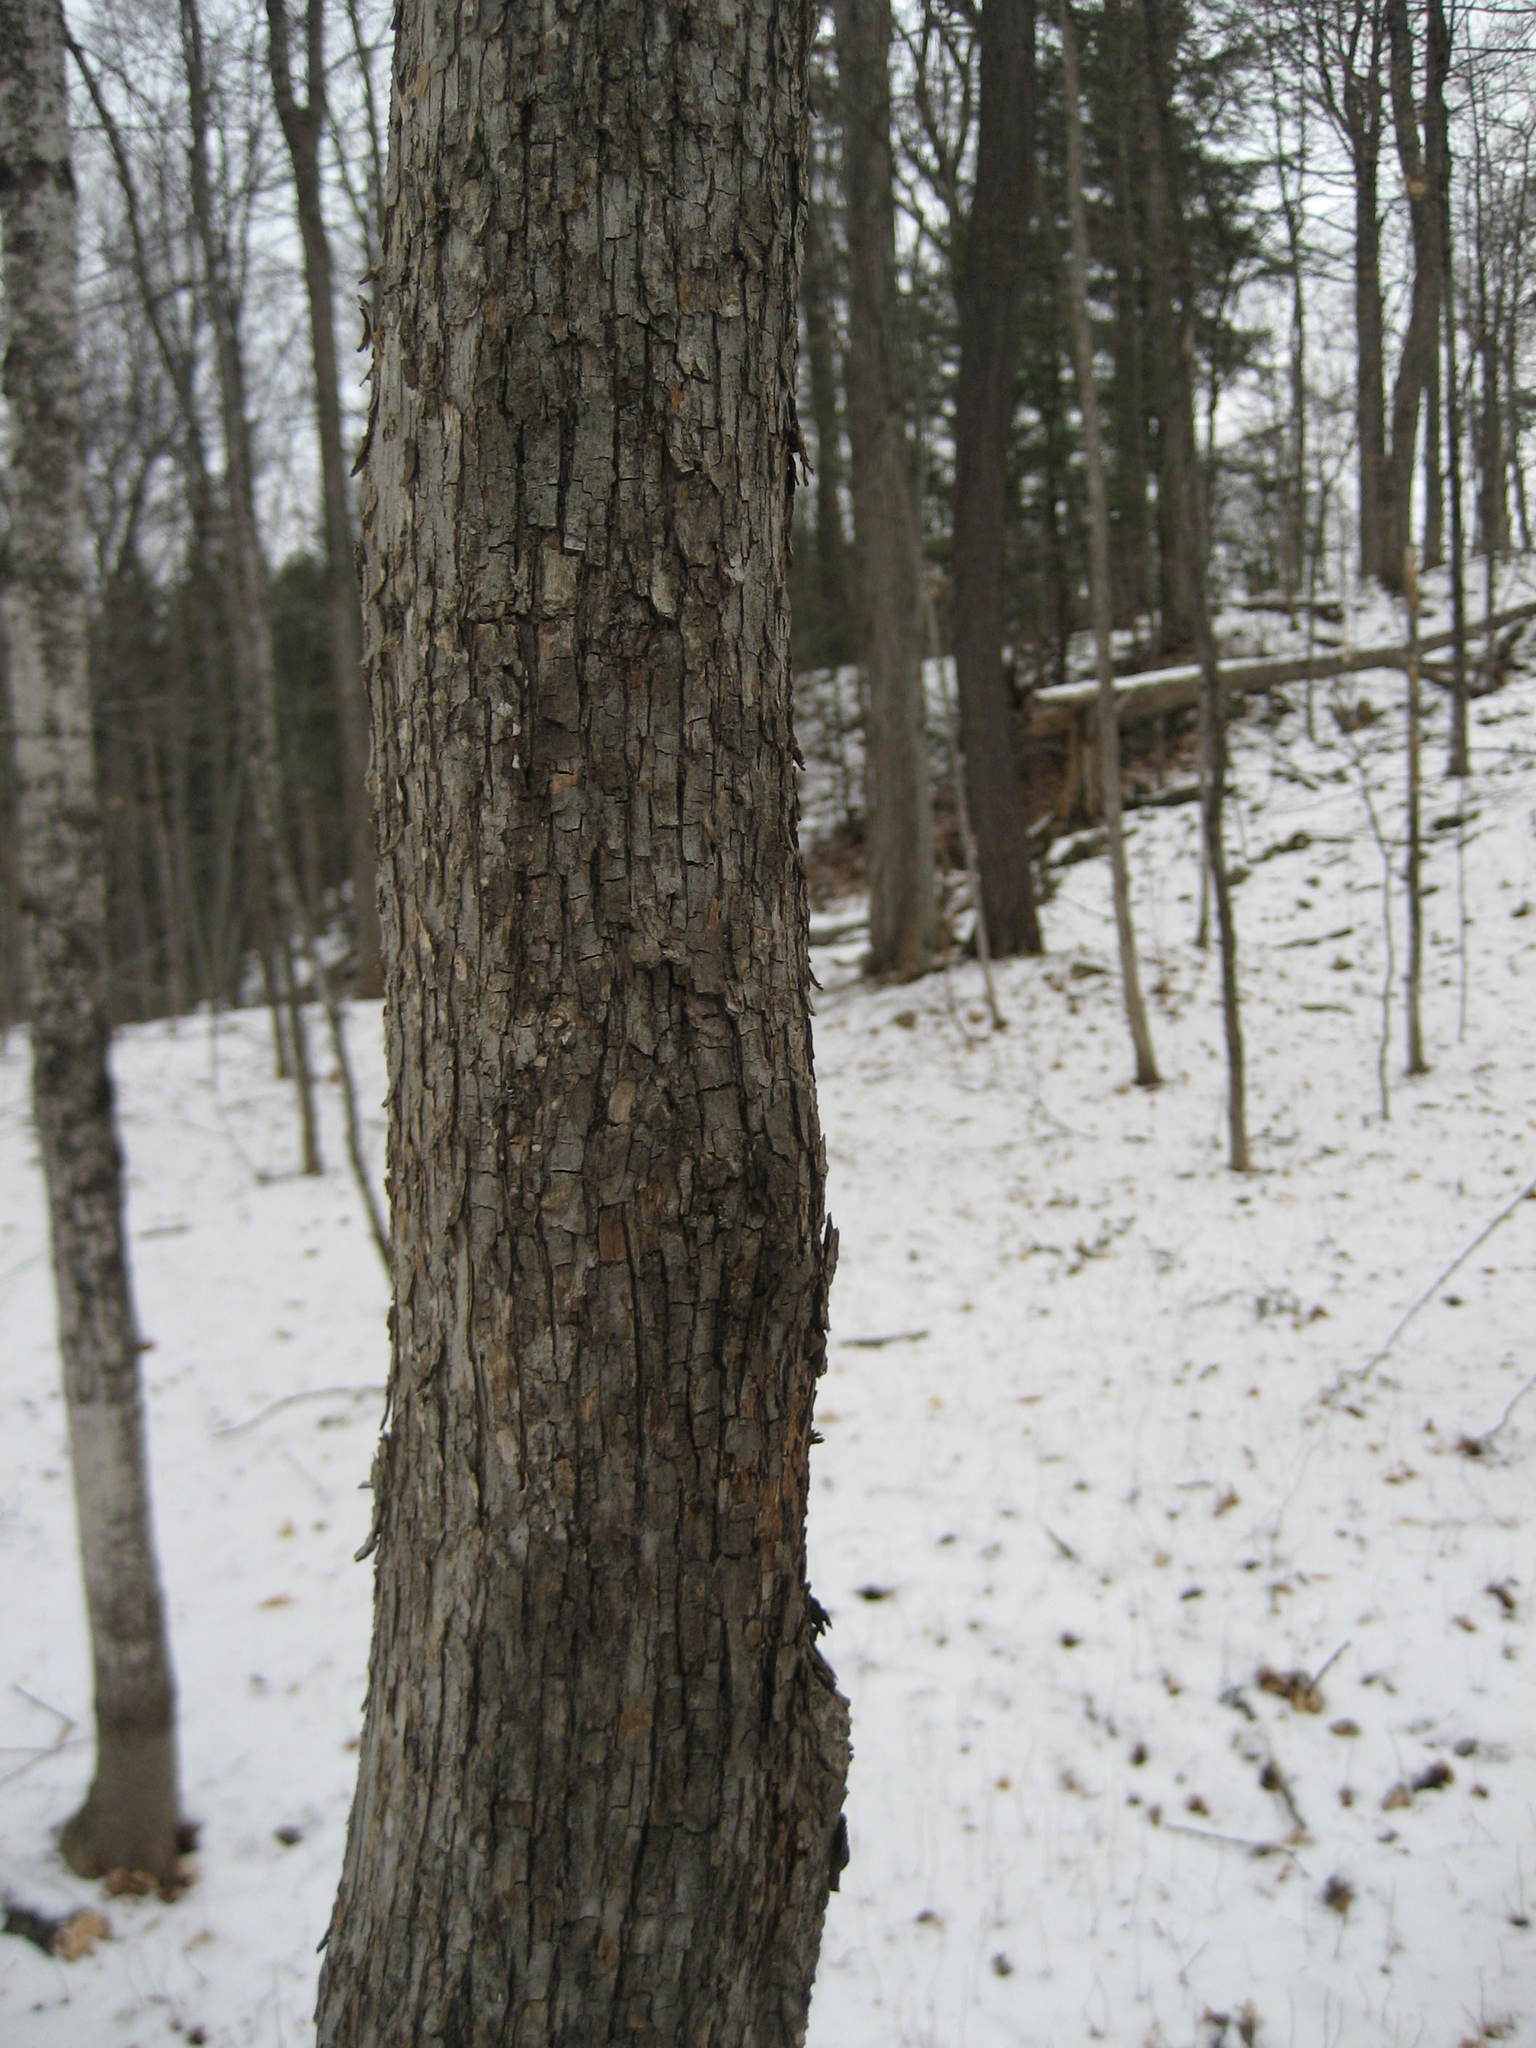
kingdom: Plantae
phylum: Tracheophyta
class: Magnoliopsida
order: Fagales
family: Betulaceae
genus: Ostrya
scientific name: Ostrya virginiana
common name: Ironwood
